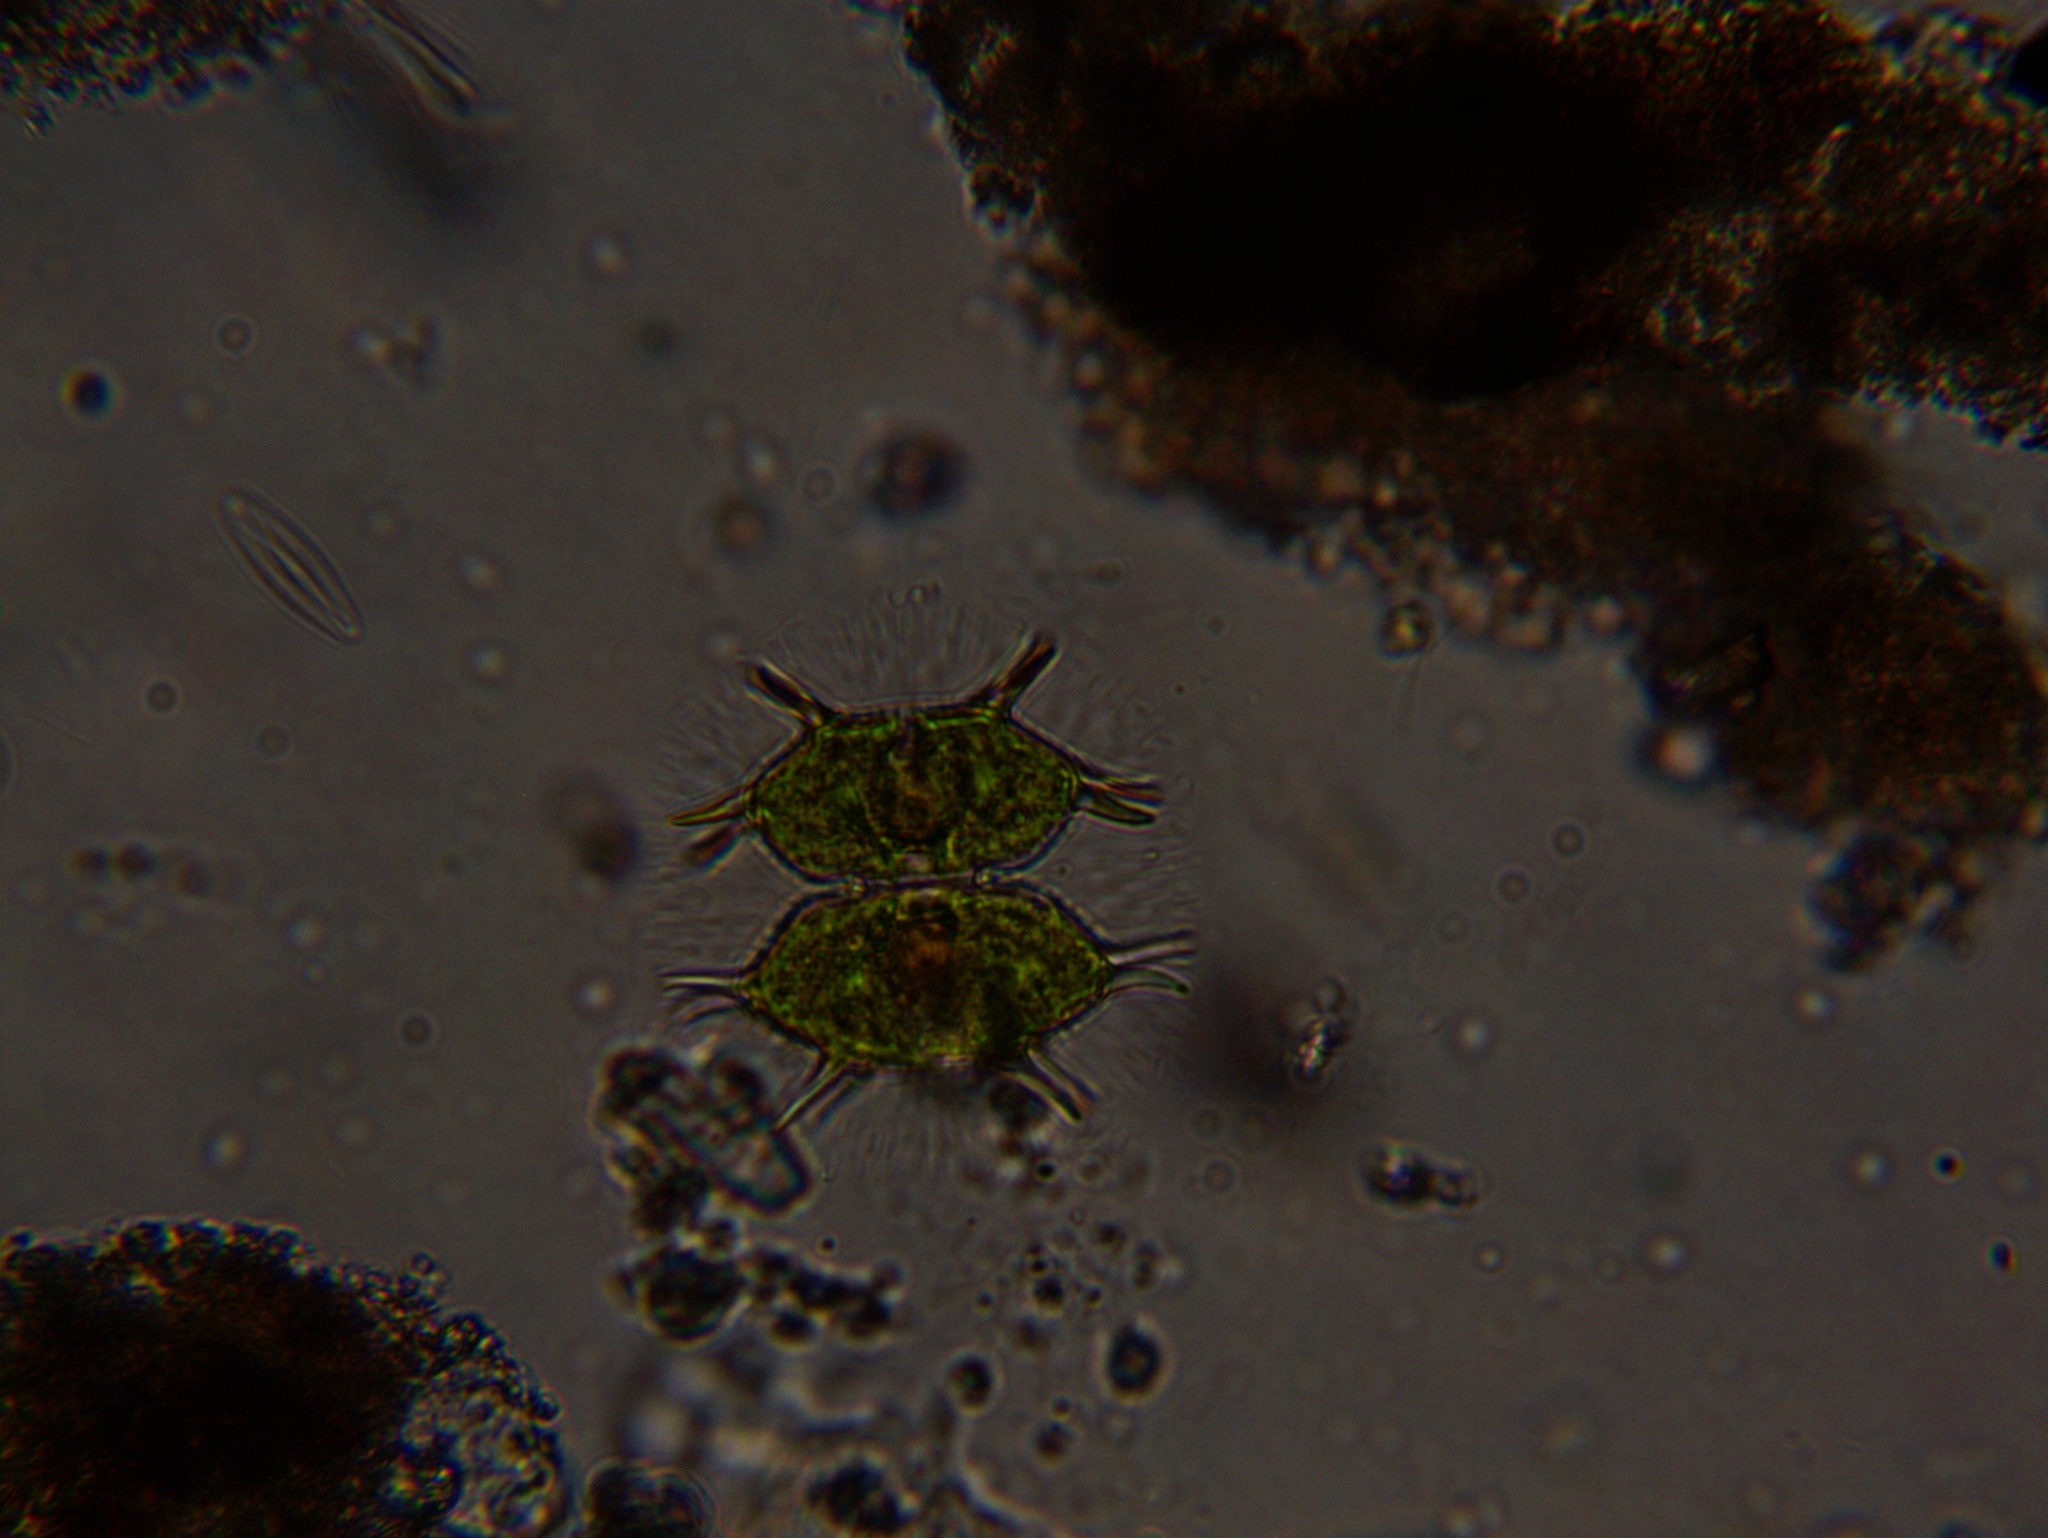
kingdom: Plantae
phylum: Charophyta
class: Conjugatophyceae
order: Desmidiales
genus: Xanthidium
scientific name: Xanthidium antilopaeum
